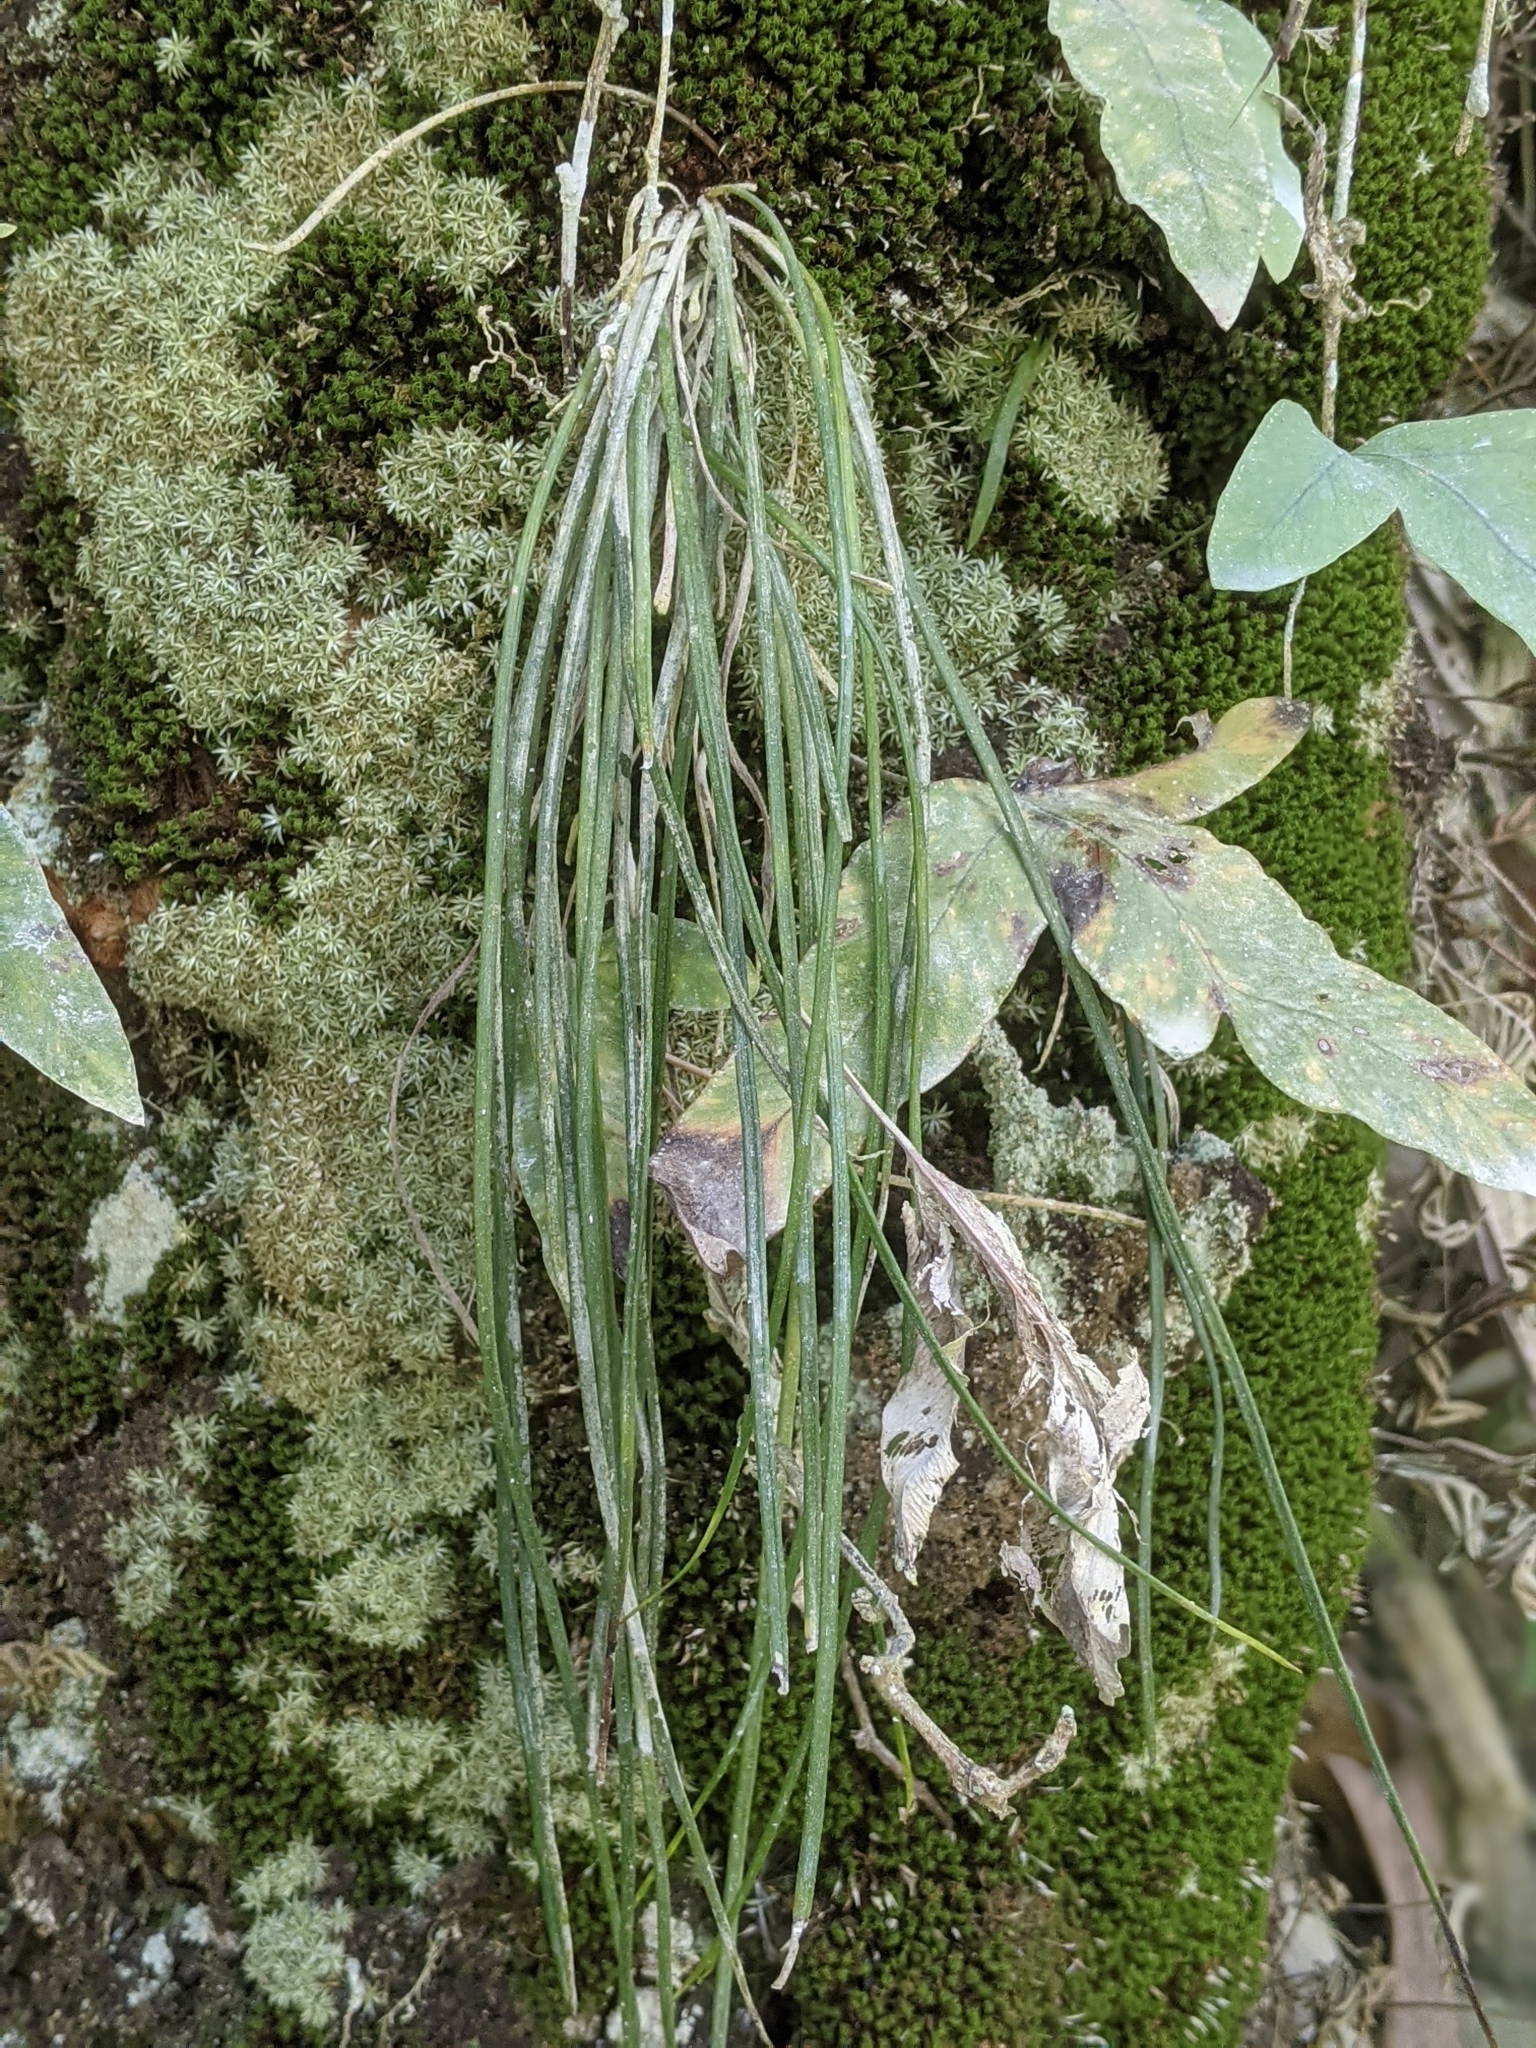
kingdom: Plantae
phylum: Tracheophyta
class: Polypodiopsida
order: Polypodiales
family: Pteridaceae
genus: Vittaria
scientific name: Vittaria lineata
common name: Shoestring fern
